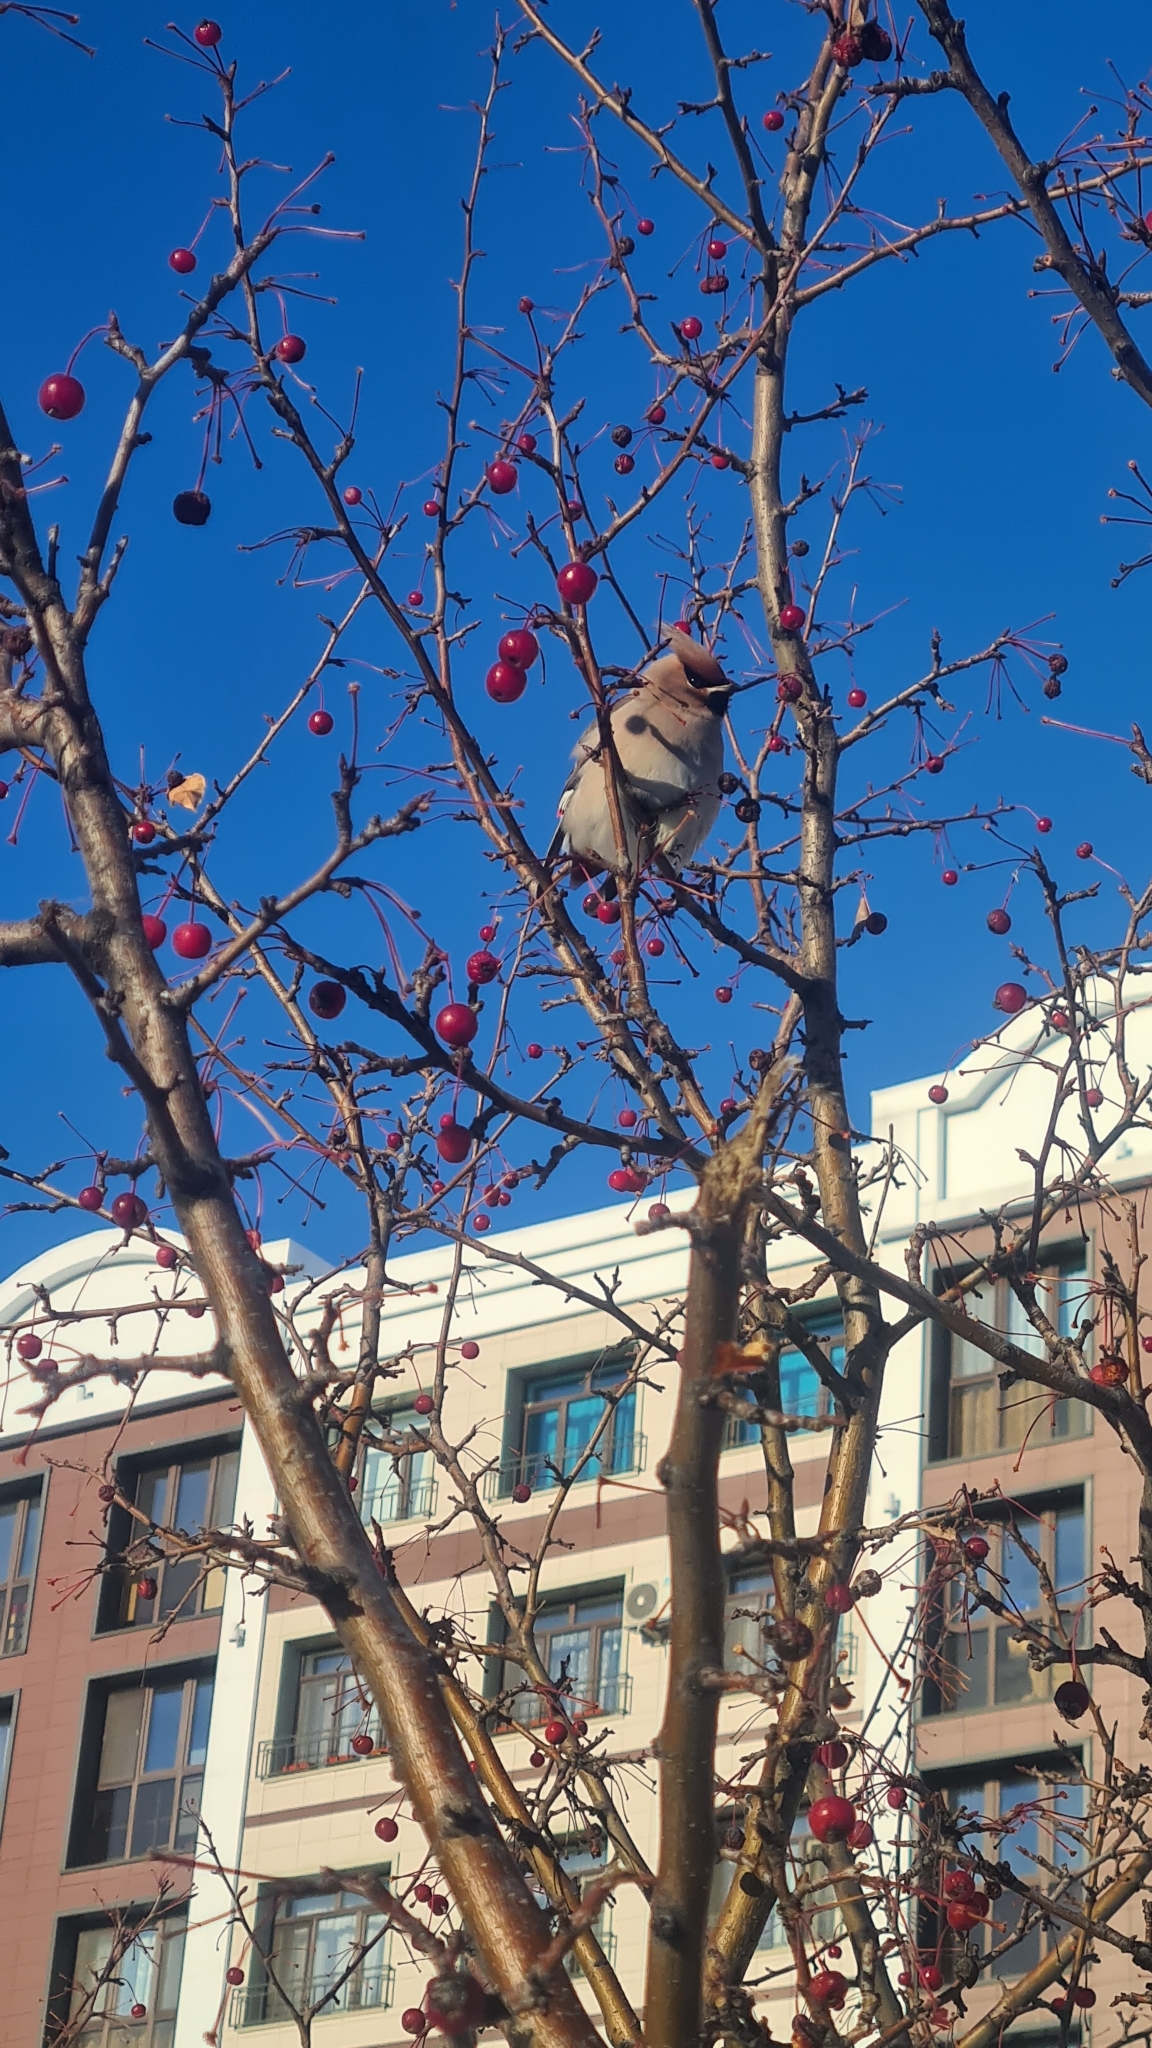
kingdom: Animalia
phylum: Chordata
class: Aves
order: Passeriformes
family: Bombycillidae
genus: Bombycilla
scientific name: Bombycilla garrulus
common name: Bohemian waxwing
